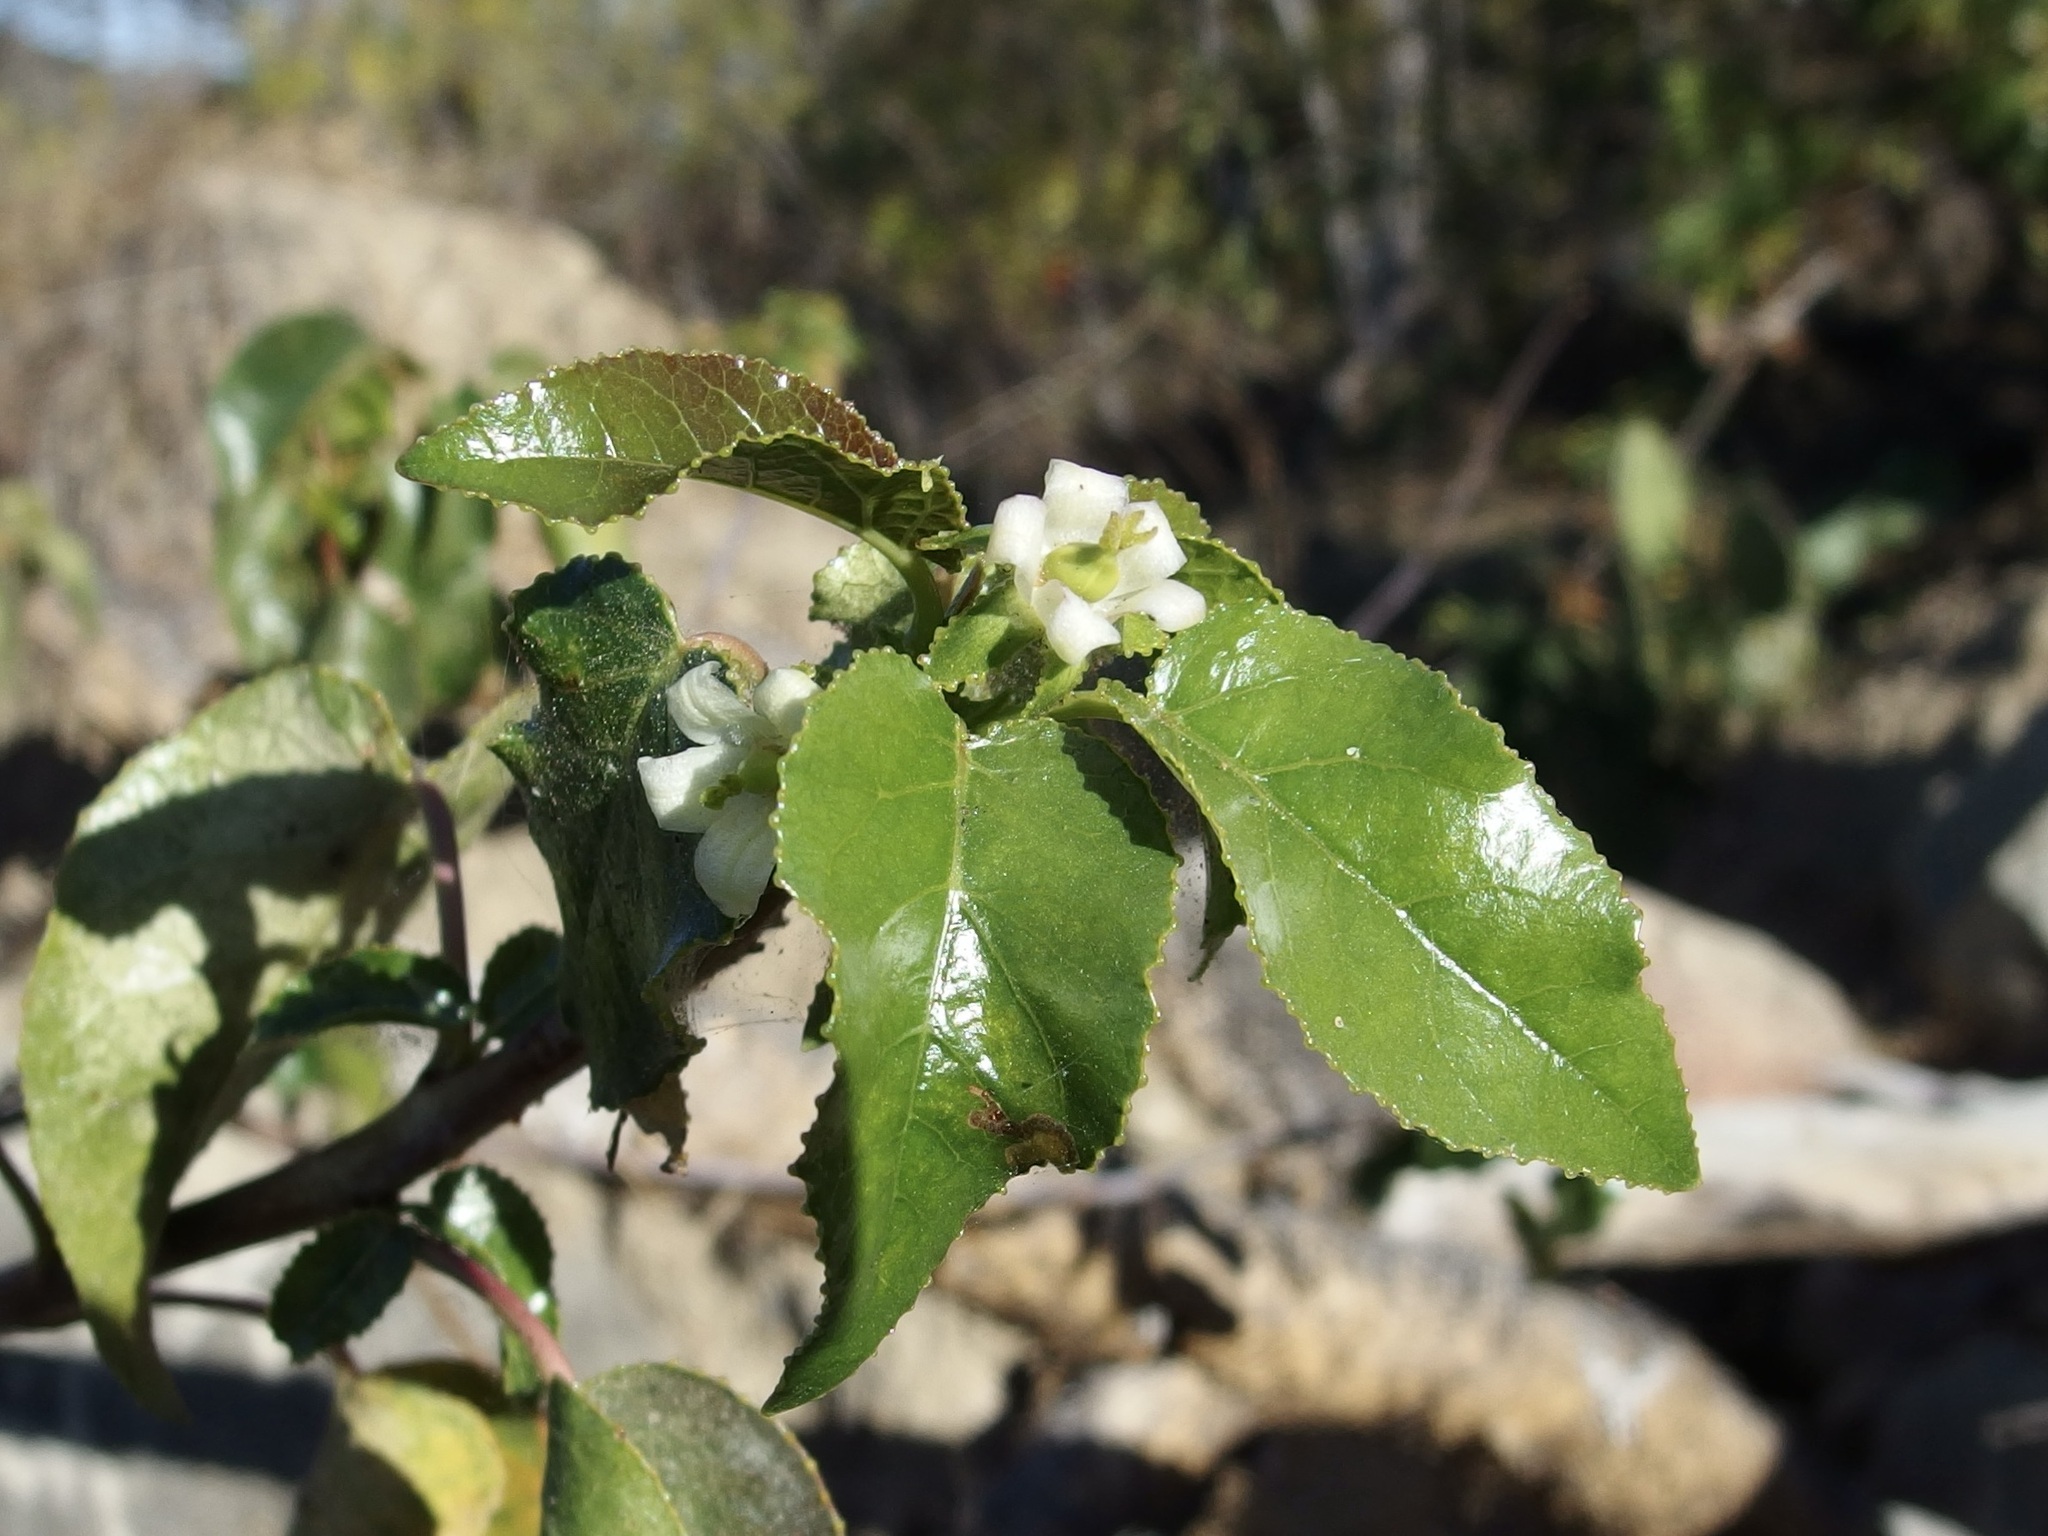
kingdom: Plantae
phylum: Tracheophyta
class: Magnoliopsida
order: Malpighiales
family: Euphorbiaceae
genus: Jatropha
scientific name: Jatropha vernicosa
